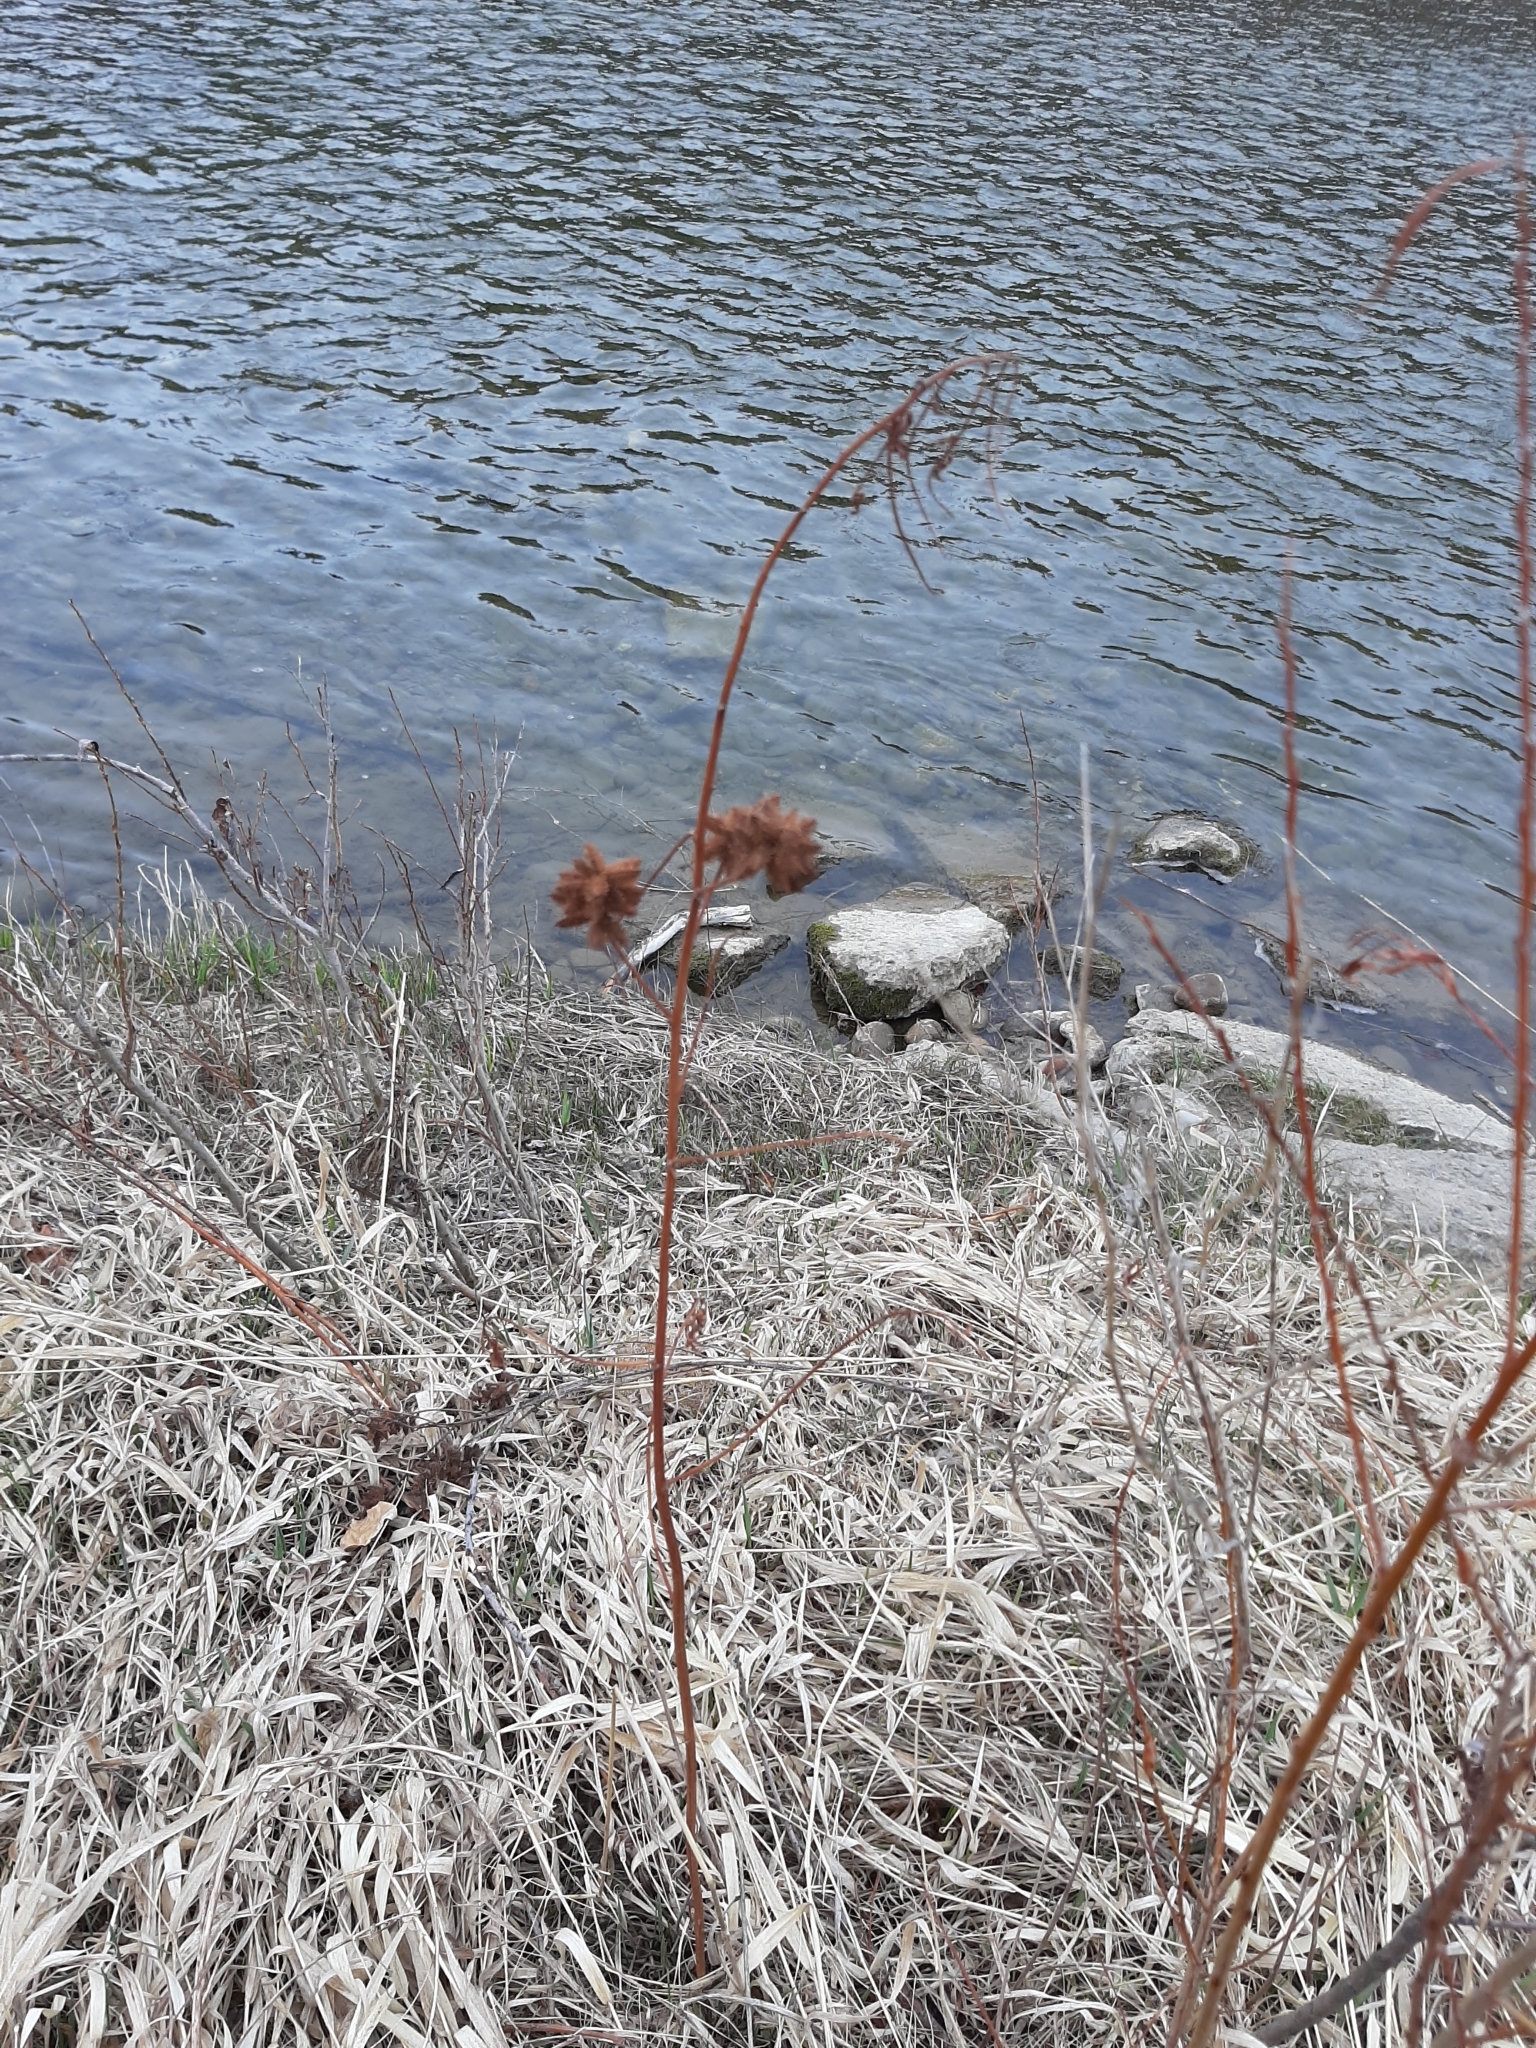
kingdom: Plantae
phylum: Tracheophyta
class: Magnoliopsida
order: Fabales
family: Fabaceae
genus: Glycyrrhiza
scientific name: Glycyrrhiza lepidota
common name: American liquorice
